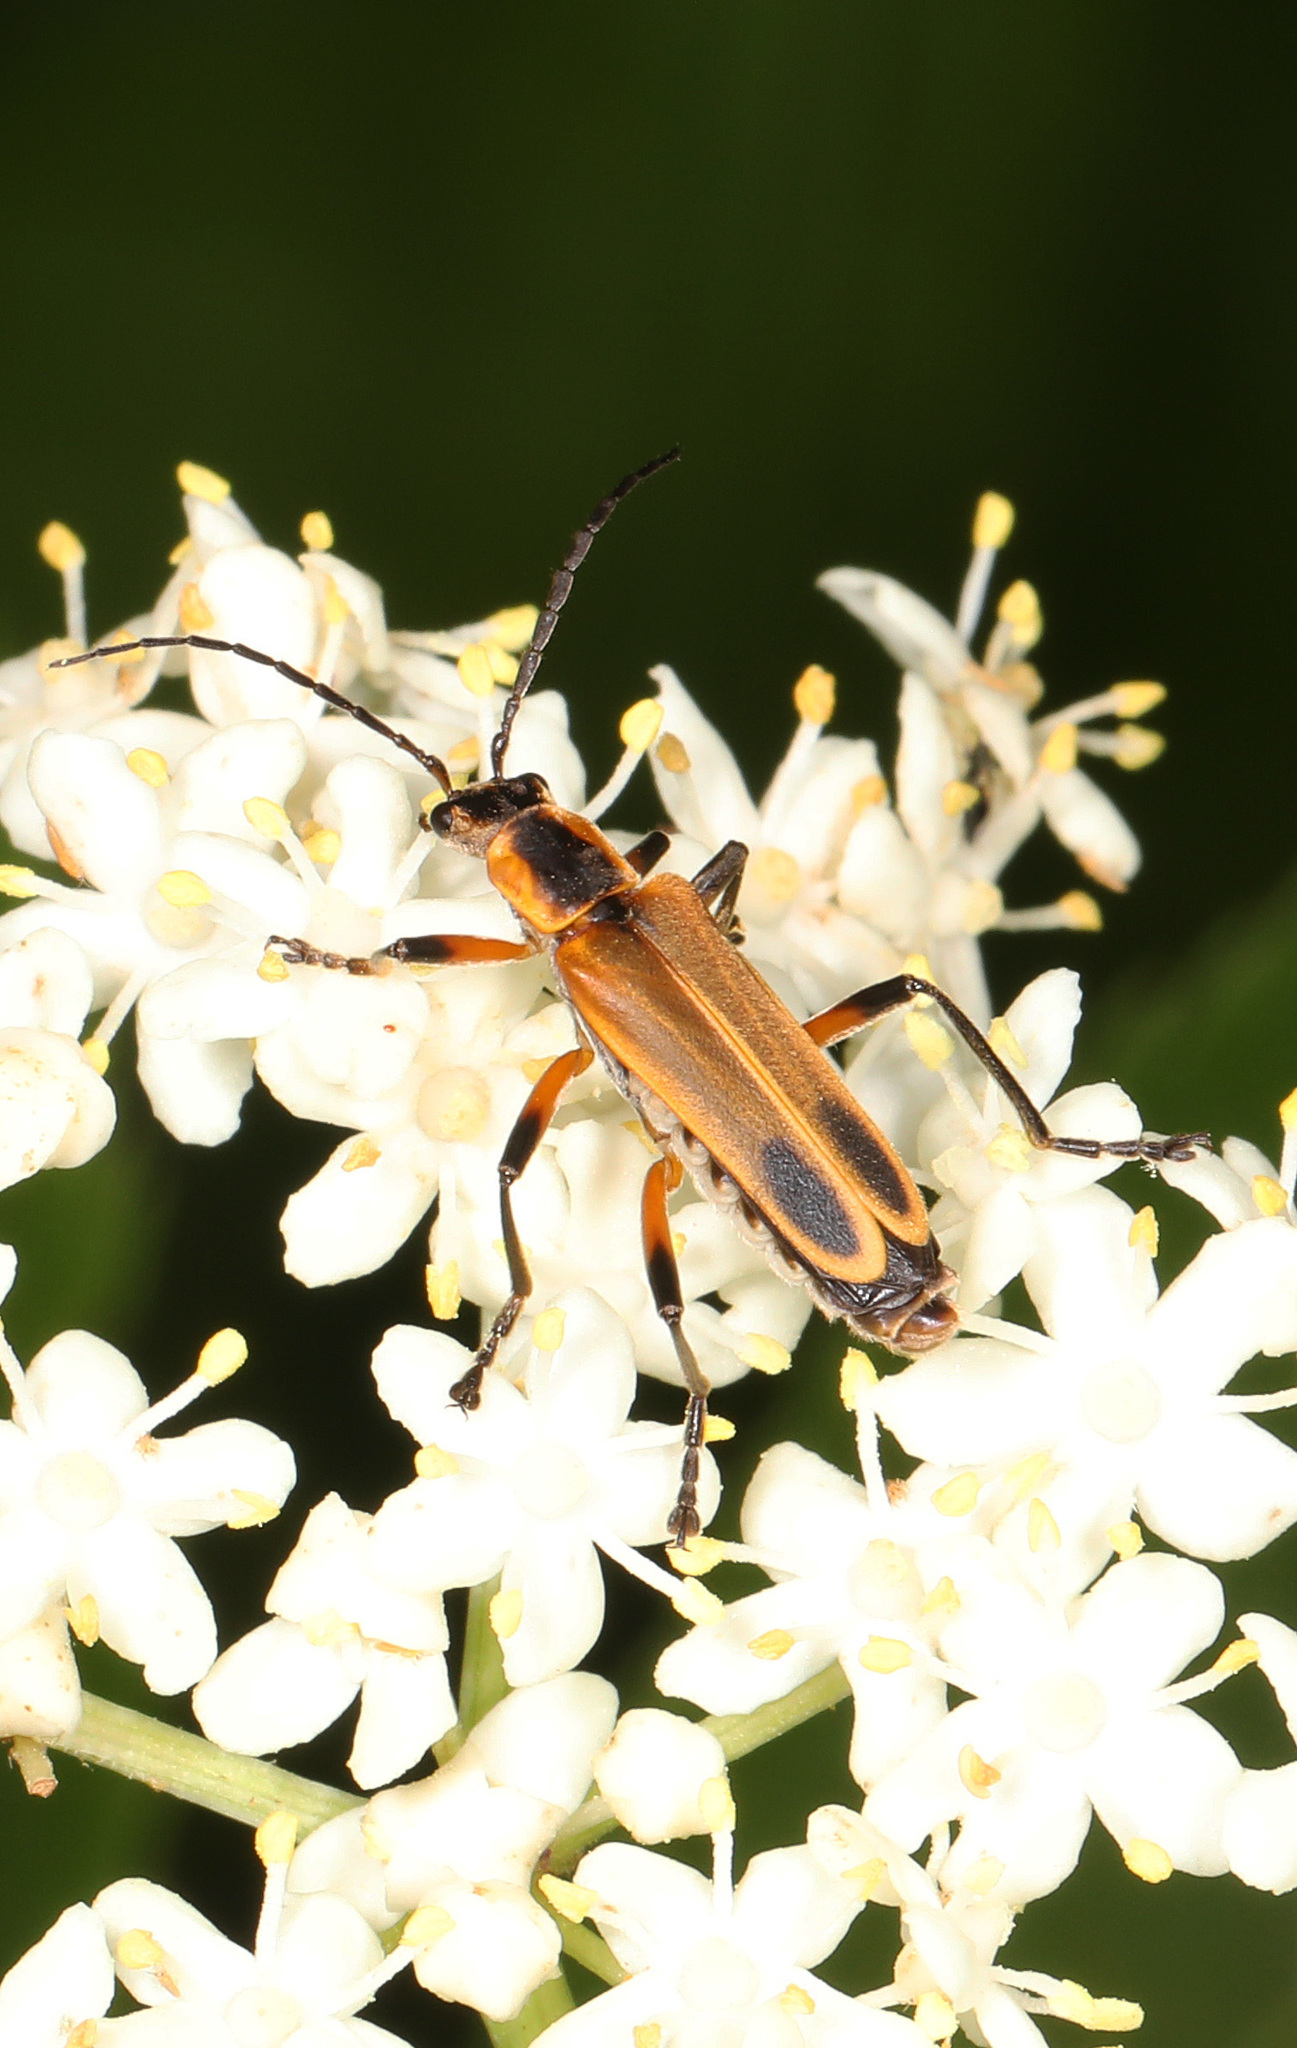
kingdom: Animalia
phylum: Arthropoda
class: Insecta
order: Coleoptera
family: Cantharidae
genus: Chauliognathus
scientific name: Chauliognathus marginatus
